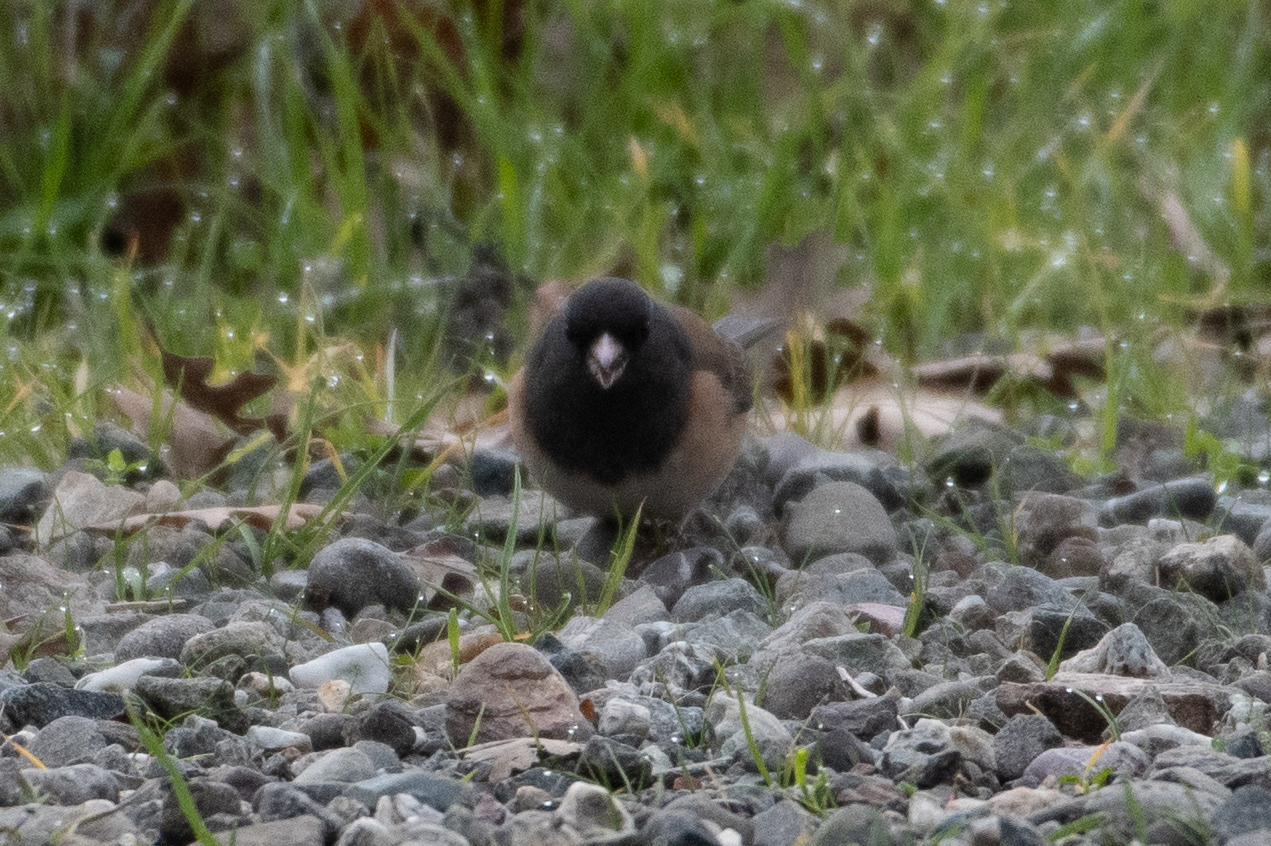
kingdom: Animalia
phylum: Chordata
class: Aves
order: Passeriformes
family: Passerellidae
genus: Junco
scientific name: Junco hyemalis
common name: Dark-eyed junco
